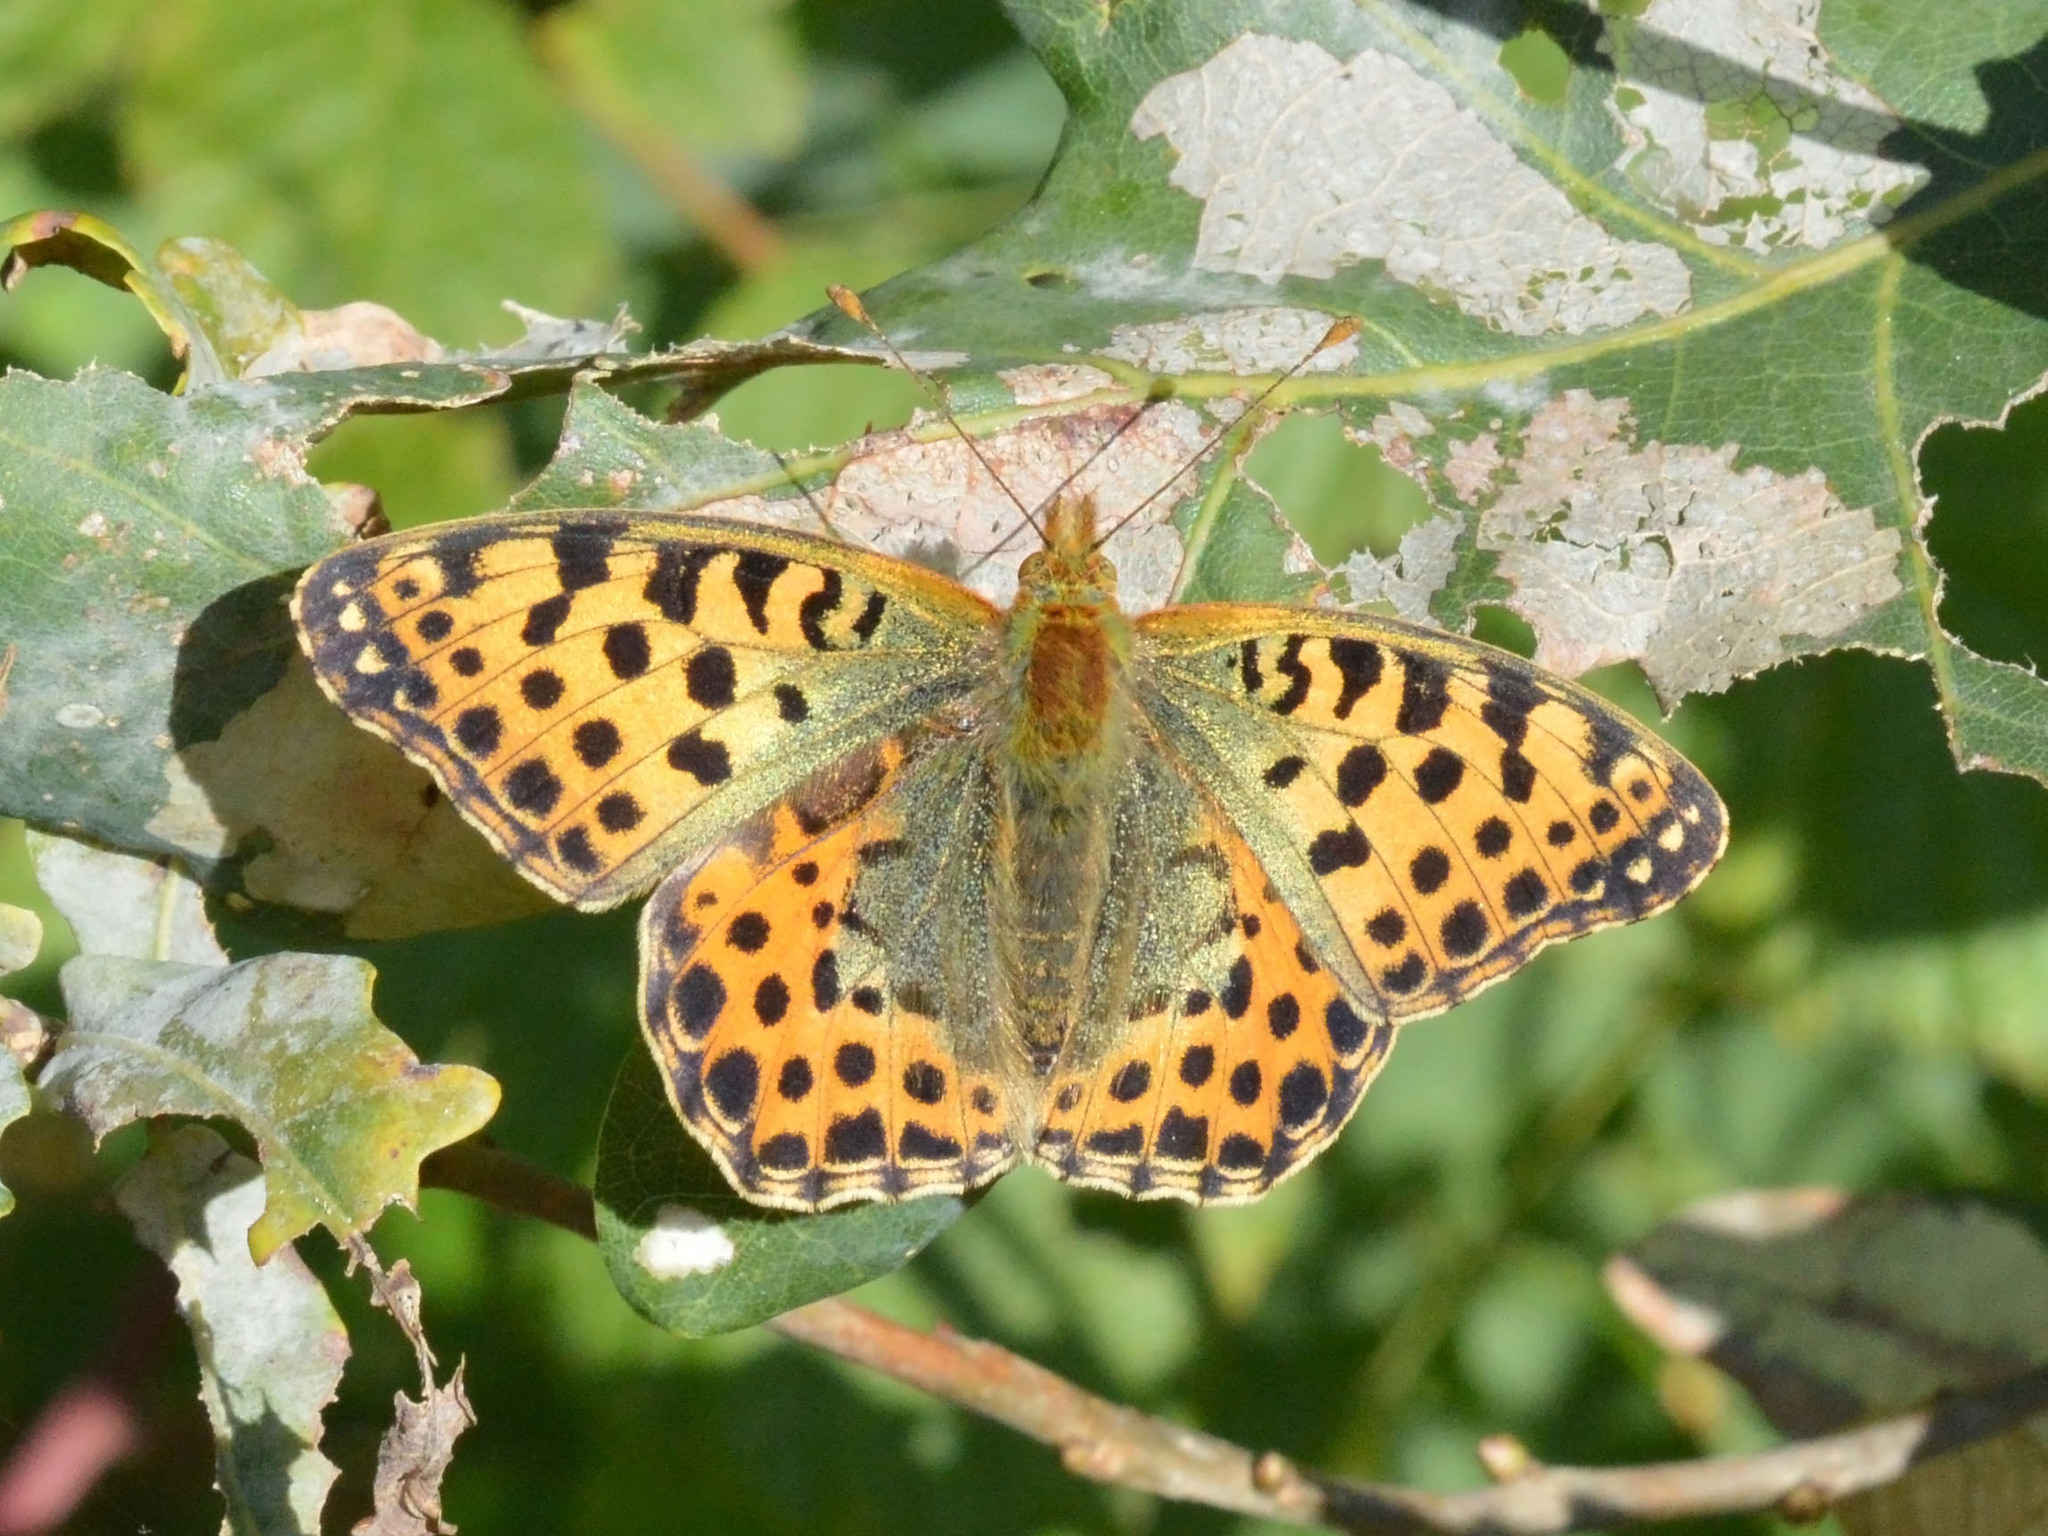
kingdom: Animalia
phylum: Arthropoda
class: Insecta
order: Lepidoptera
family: Nymphalidae
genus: Issoria
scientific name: Issoria lathonia
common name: Queen of spain fritillary
